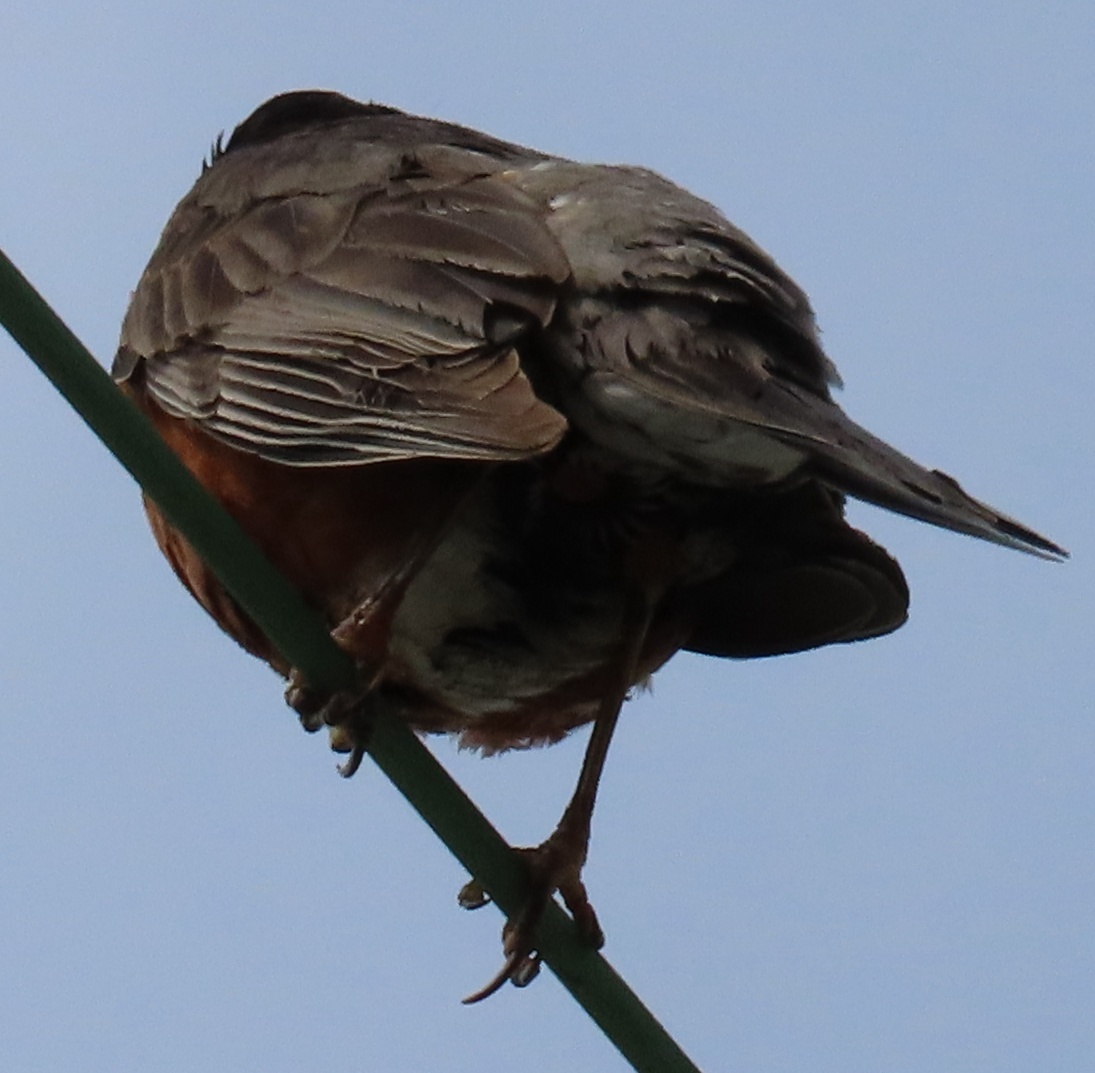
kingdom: Animalia
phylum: Chordata
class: Aves
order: Passeriformes
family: Turdidae
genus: Turdus
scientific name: Turdus migratorius
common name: American robin
